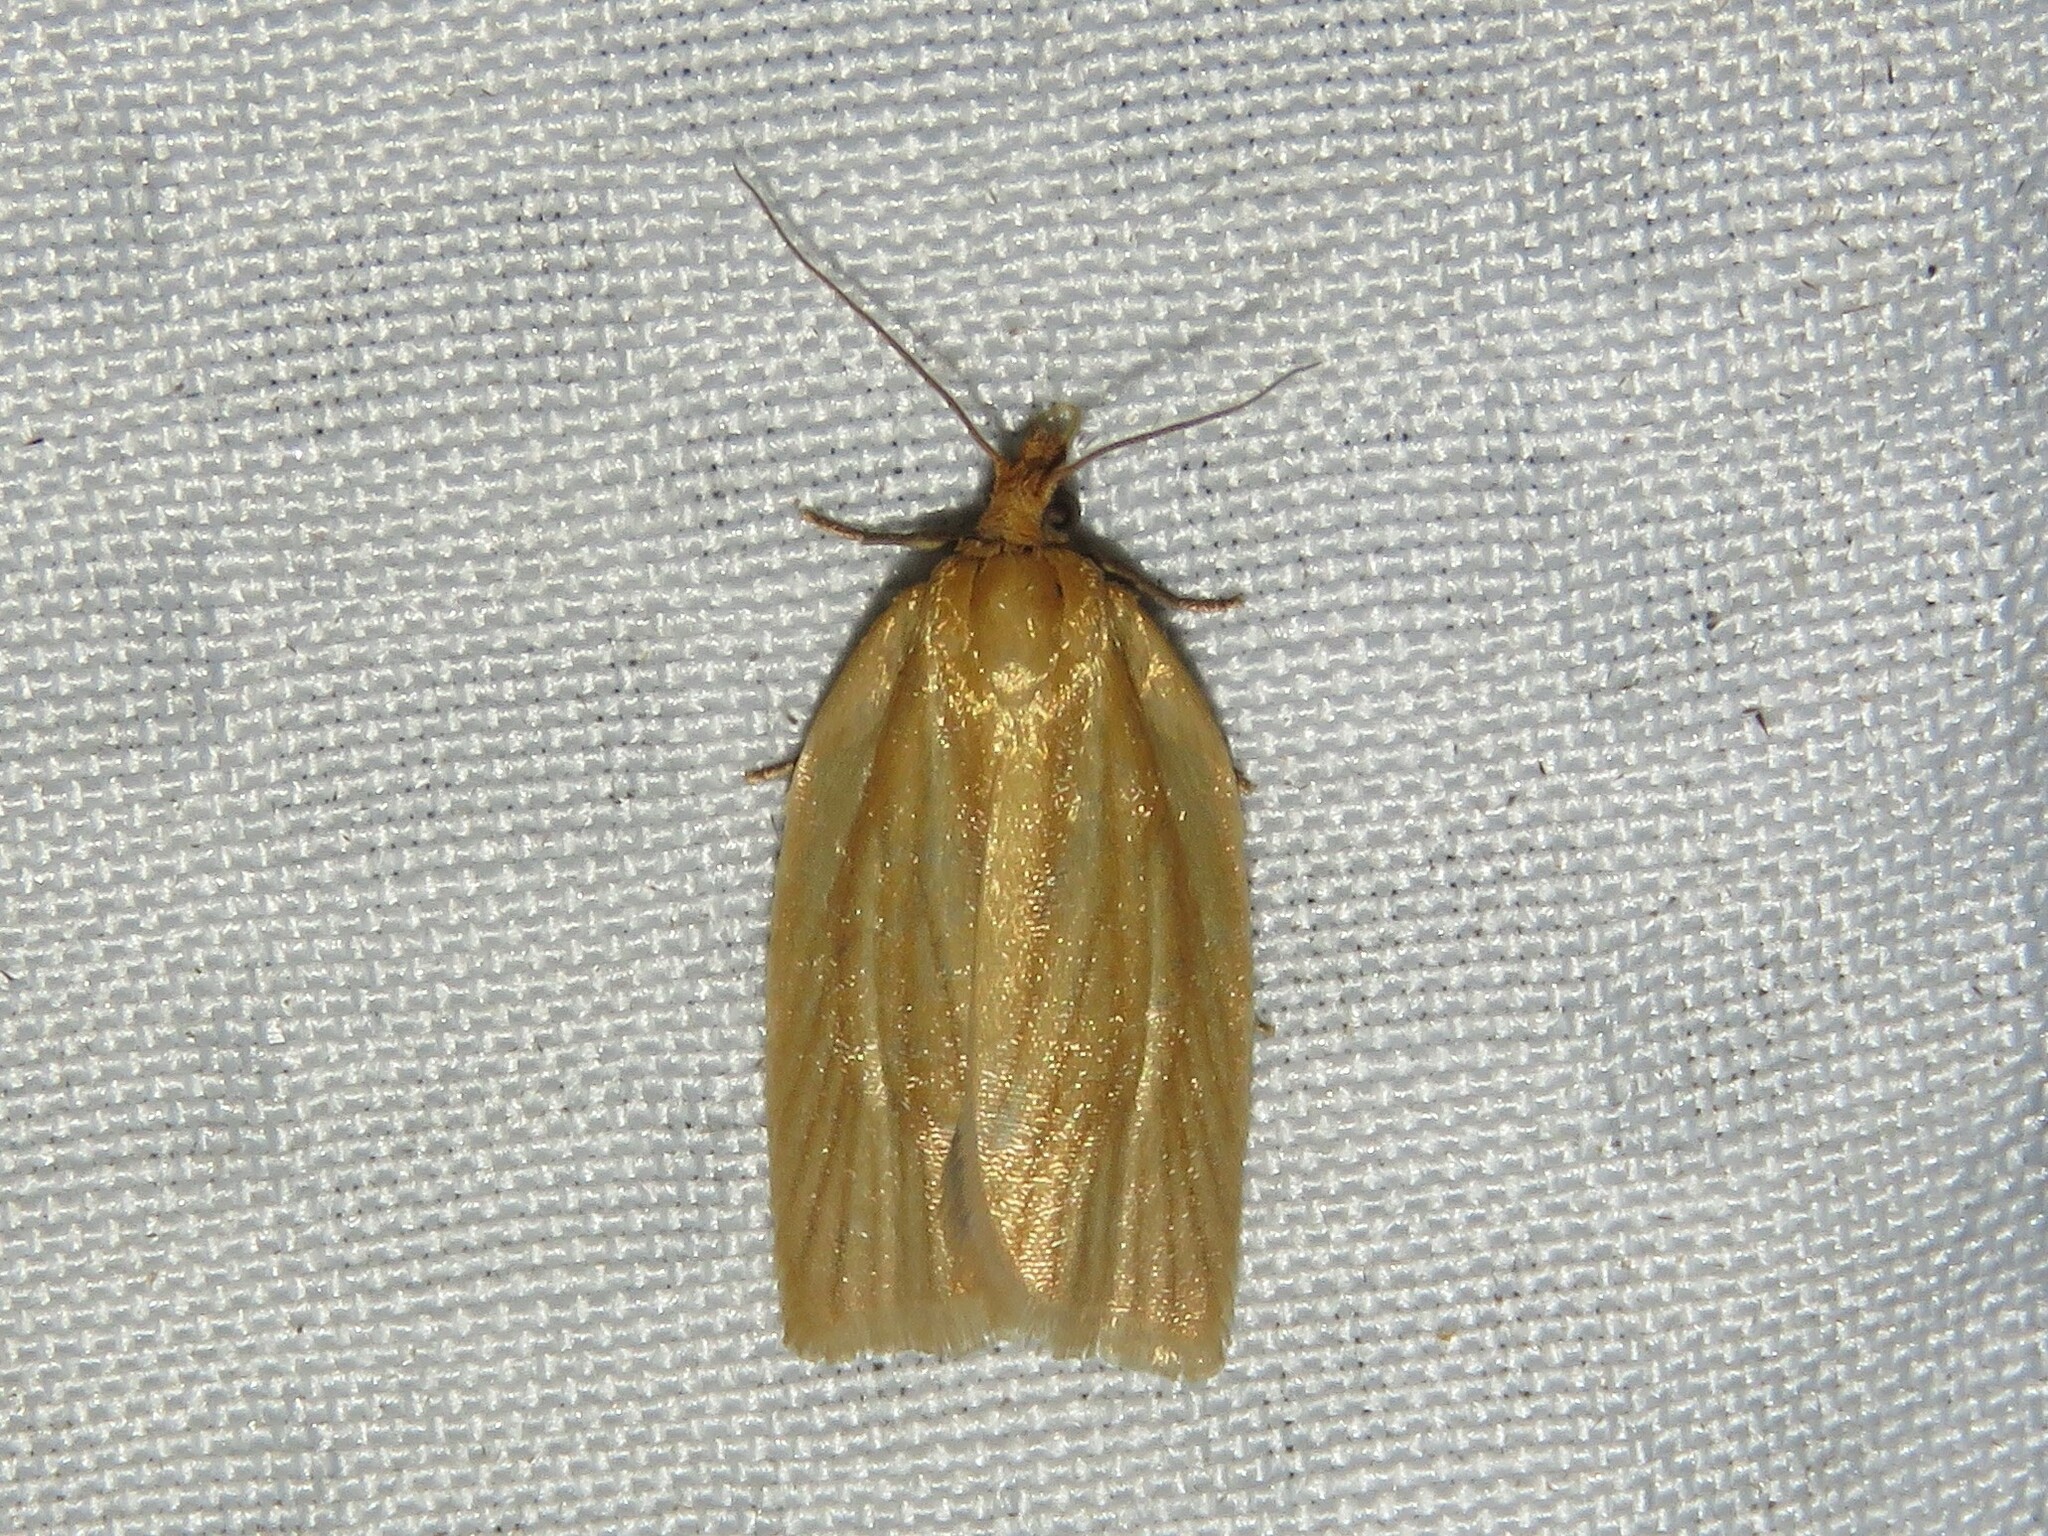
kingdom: Animalia
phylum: Arthropoda
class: Insecta
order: Lepidoptera
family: Tortricidae
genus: Clepsis
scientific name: Clepsis clemensiana
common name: Clemens' clepsis moth
